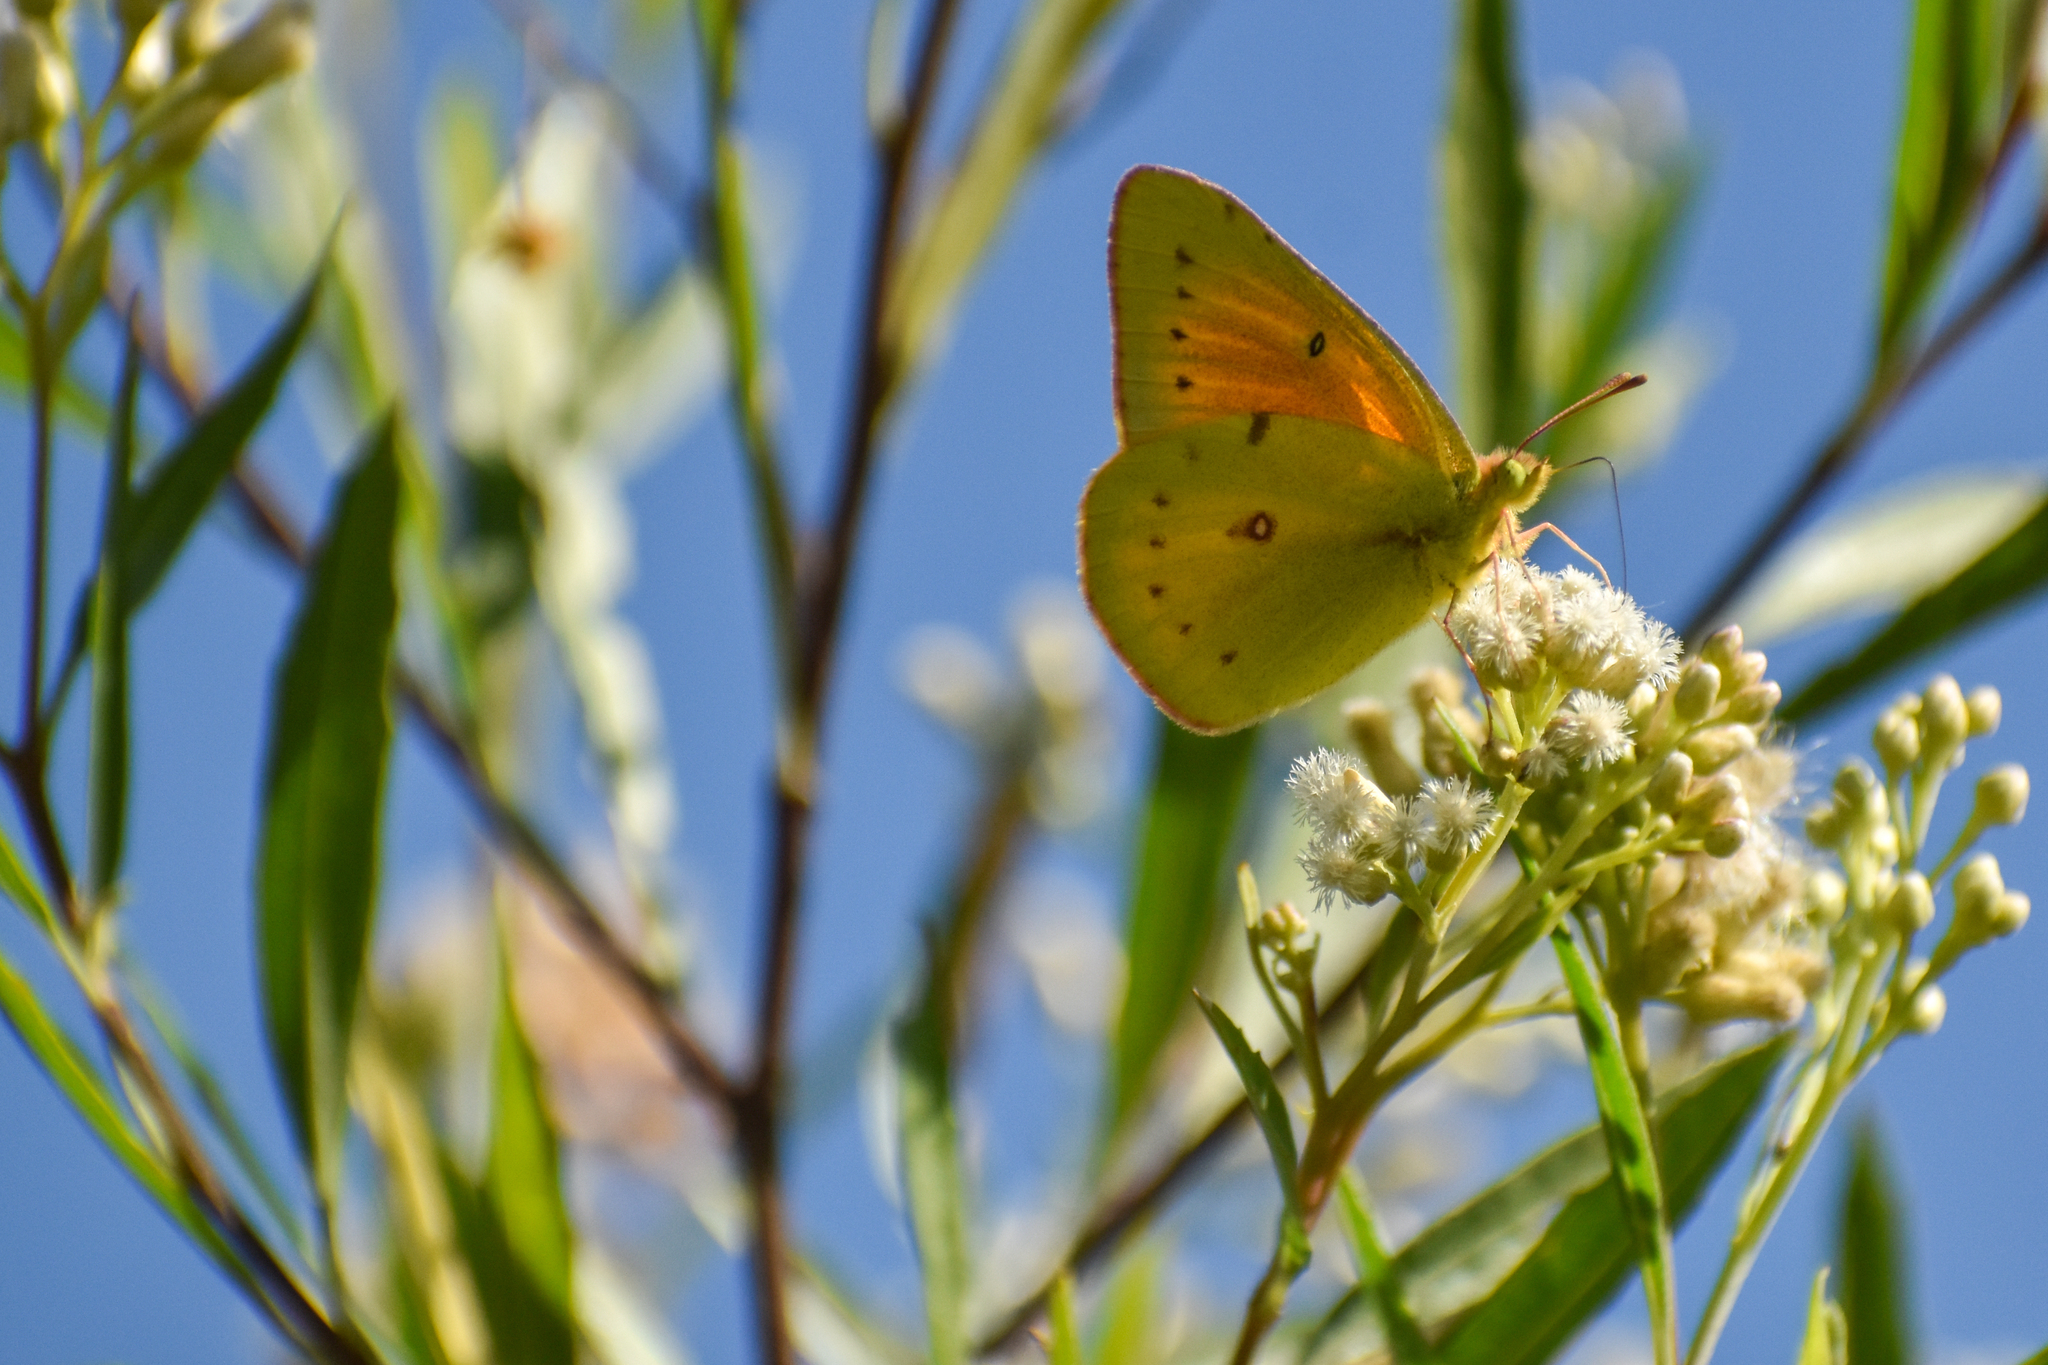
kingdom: Animalia
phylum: Arthropoda
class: Insecta
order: Lepidoptera
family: Pieridae
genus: Colias
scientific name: Colias lesbia
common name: Lesbia clouded yellow
